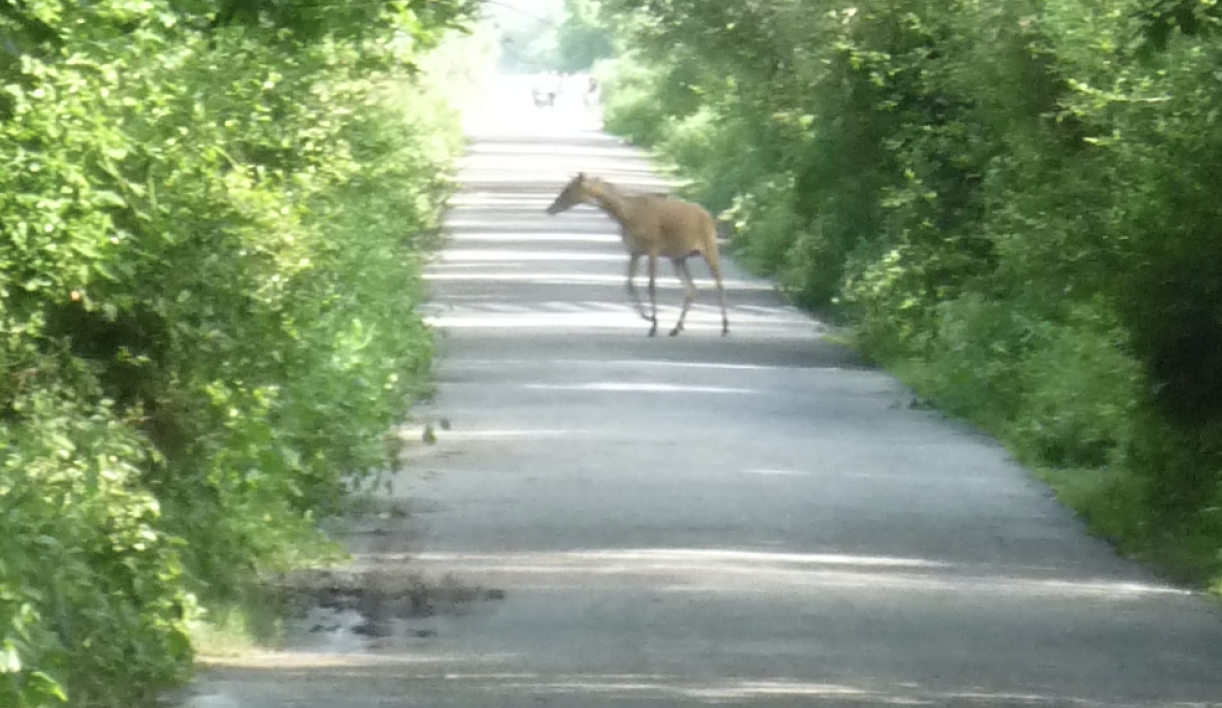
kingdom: Animalia
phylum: Chordata
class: Mammalia
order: Artiodactyla
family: Bovidae
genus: Boselaphus
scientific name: Boselaphus tragocamelus
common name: Nilgai
